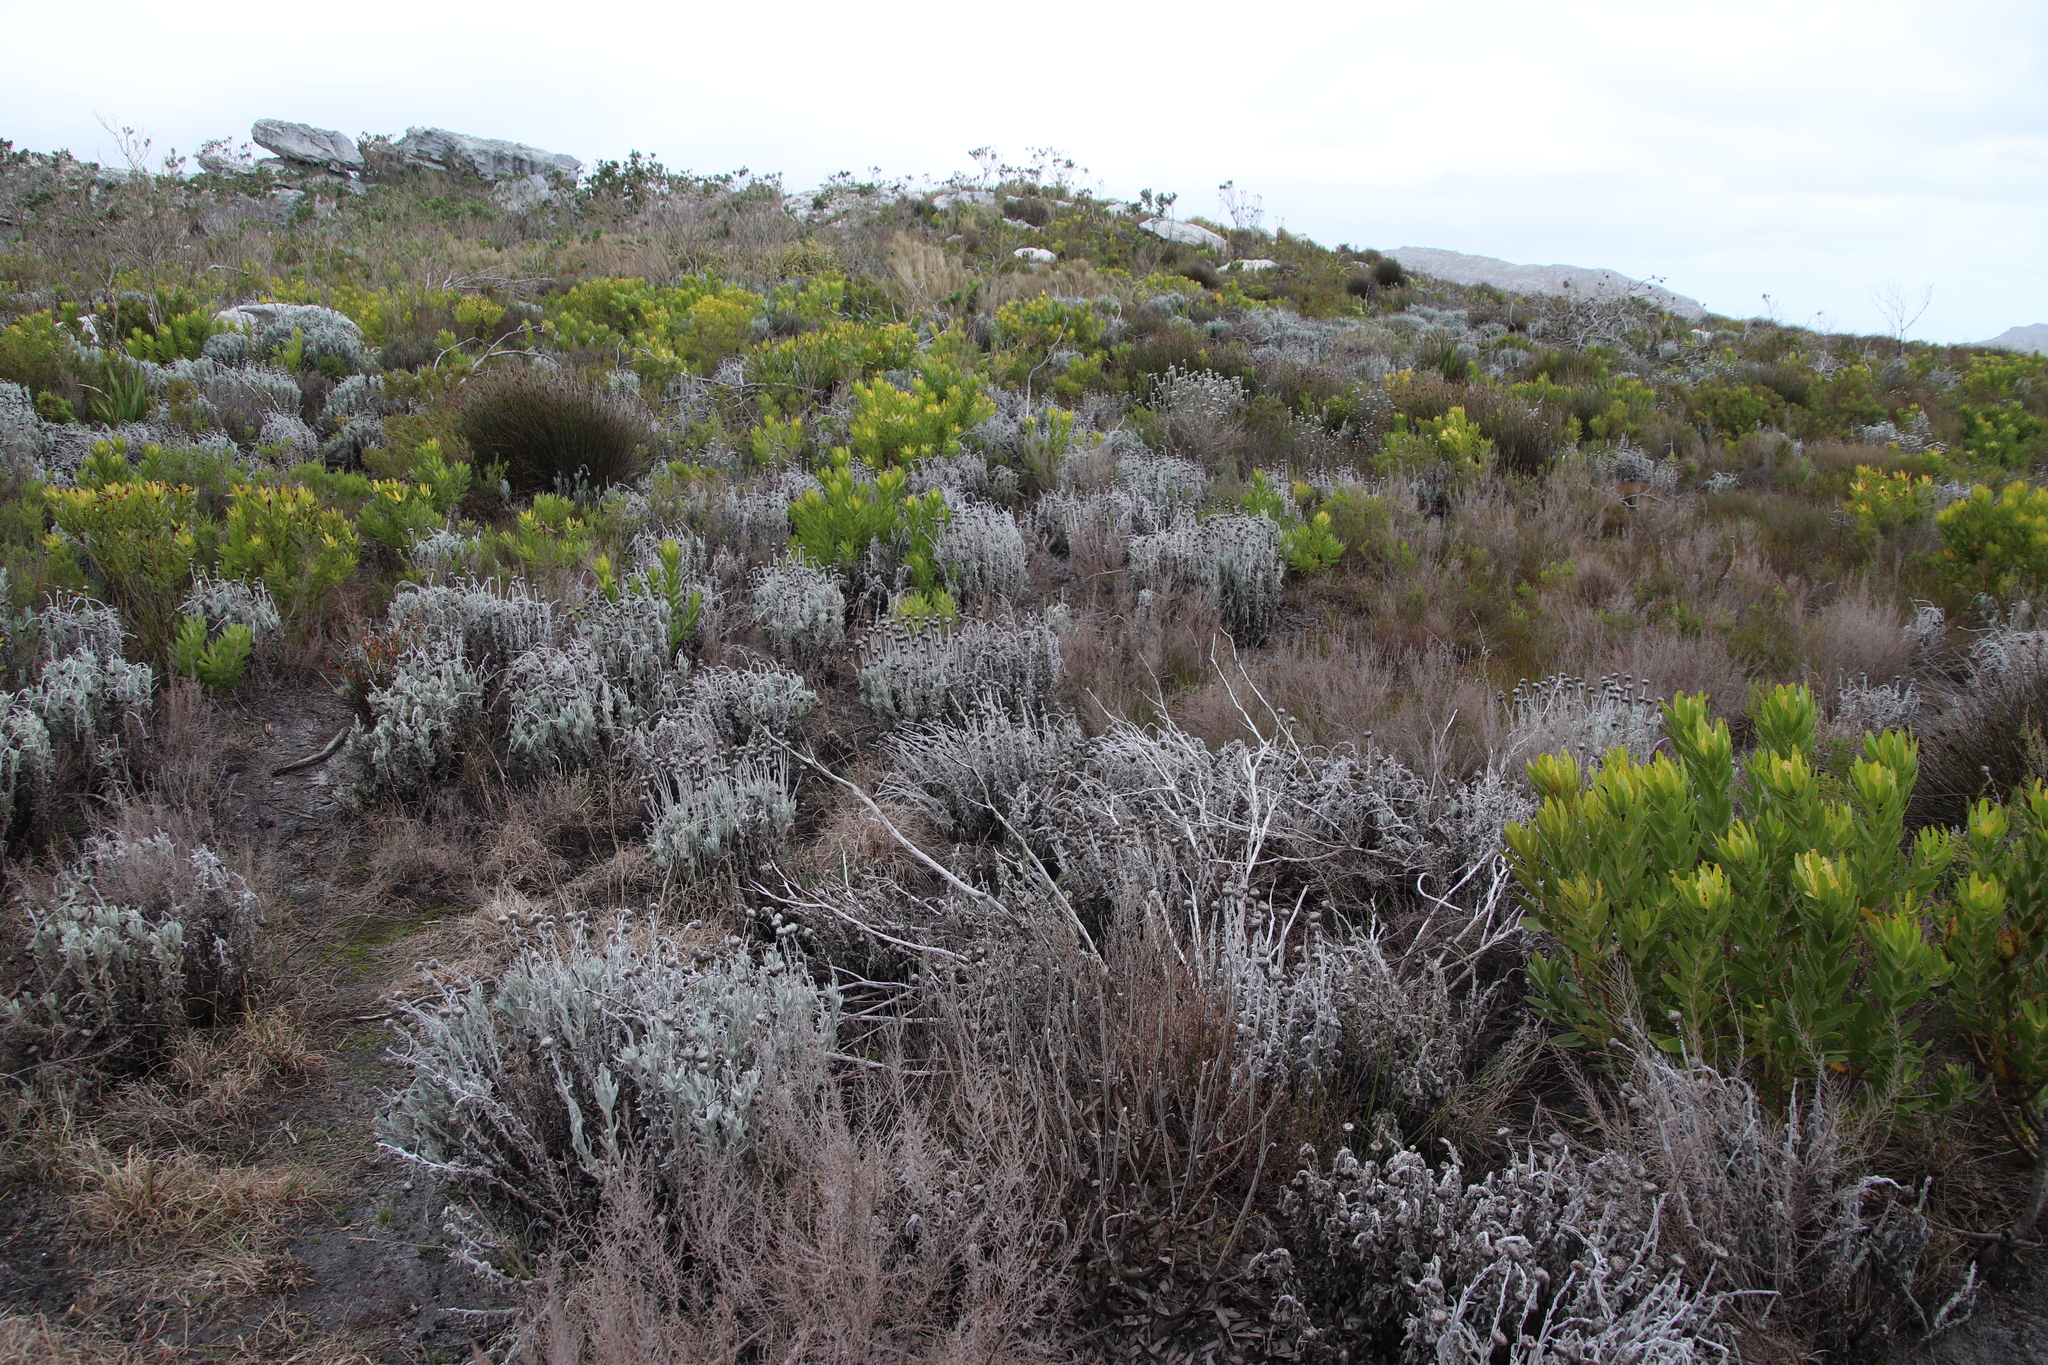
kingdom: Plantae
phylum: Tracheophyta
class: Magnoliopsida
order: Asterales
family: Asteraceae
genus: Syncarpha
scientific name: Syncarpha vestita
